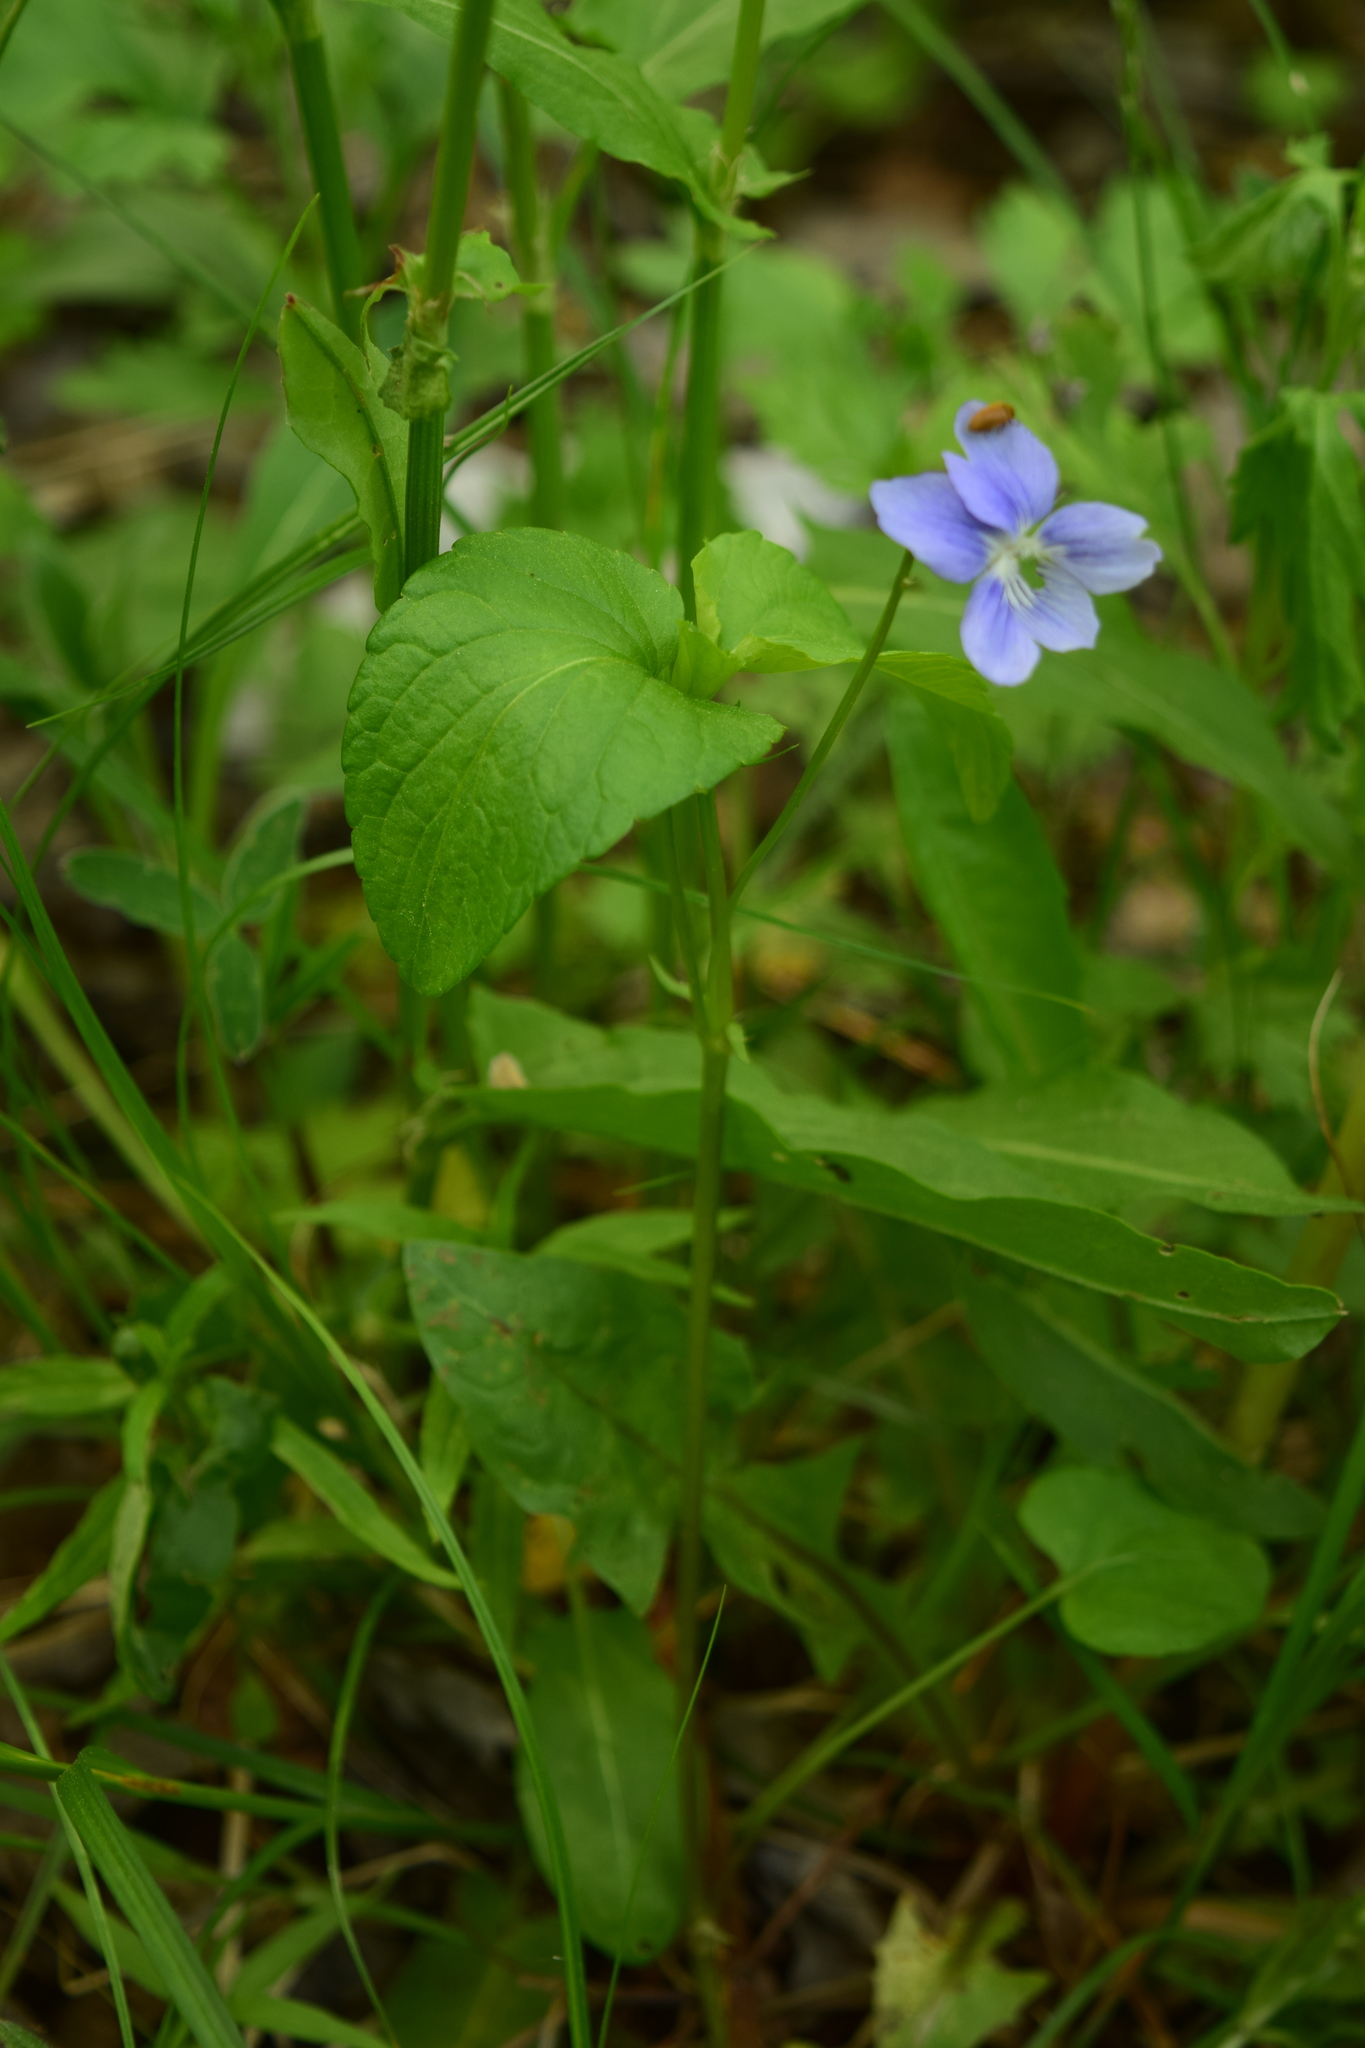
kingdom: Plantae
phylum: Tracheophyta
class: Magnoliopsida
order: Malpighiales
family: Violaceae
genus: Viola
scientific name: Viola
